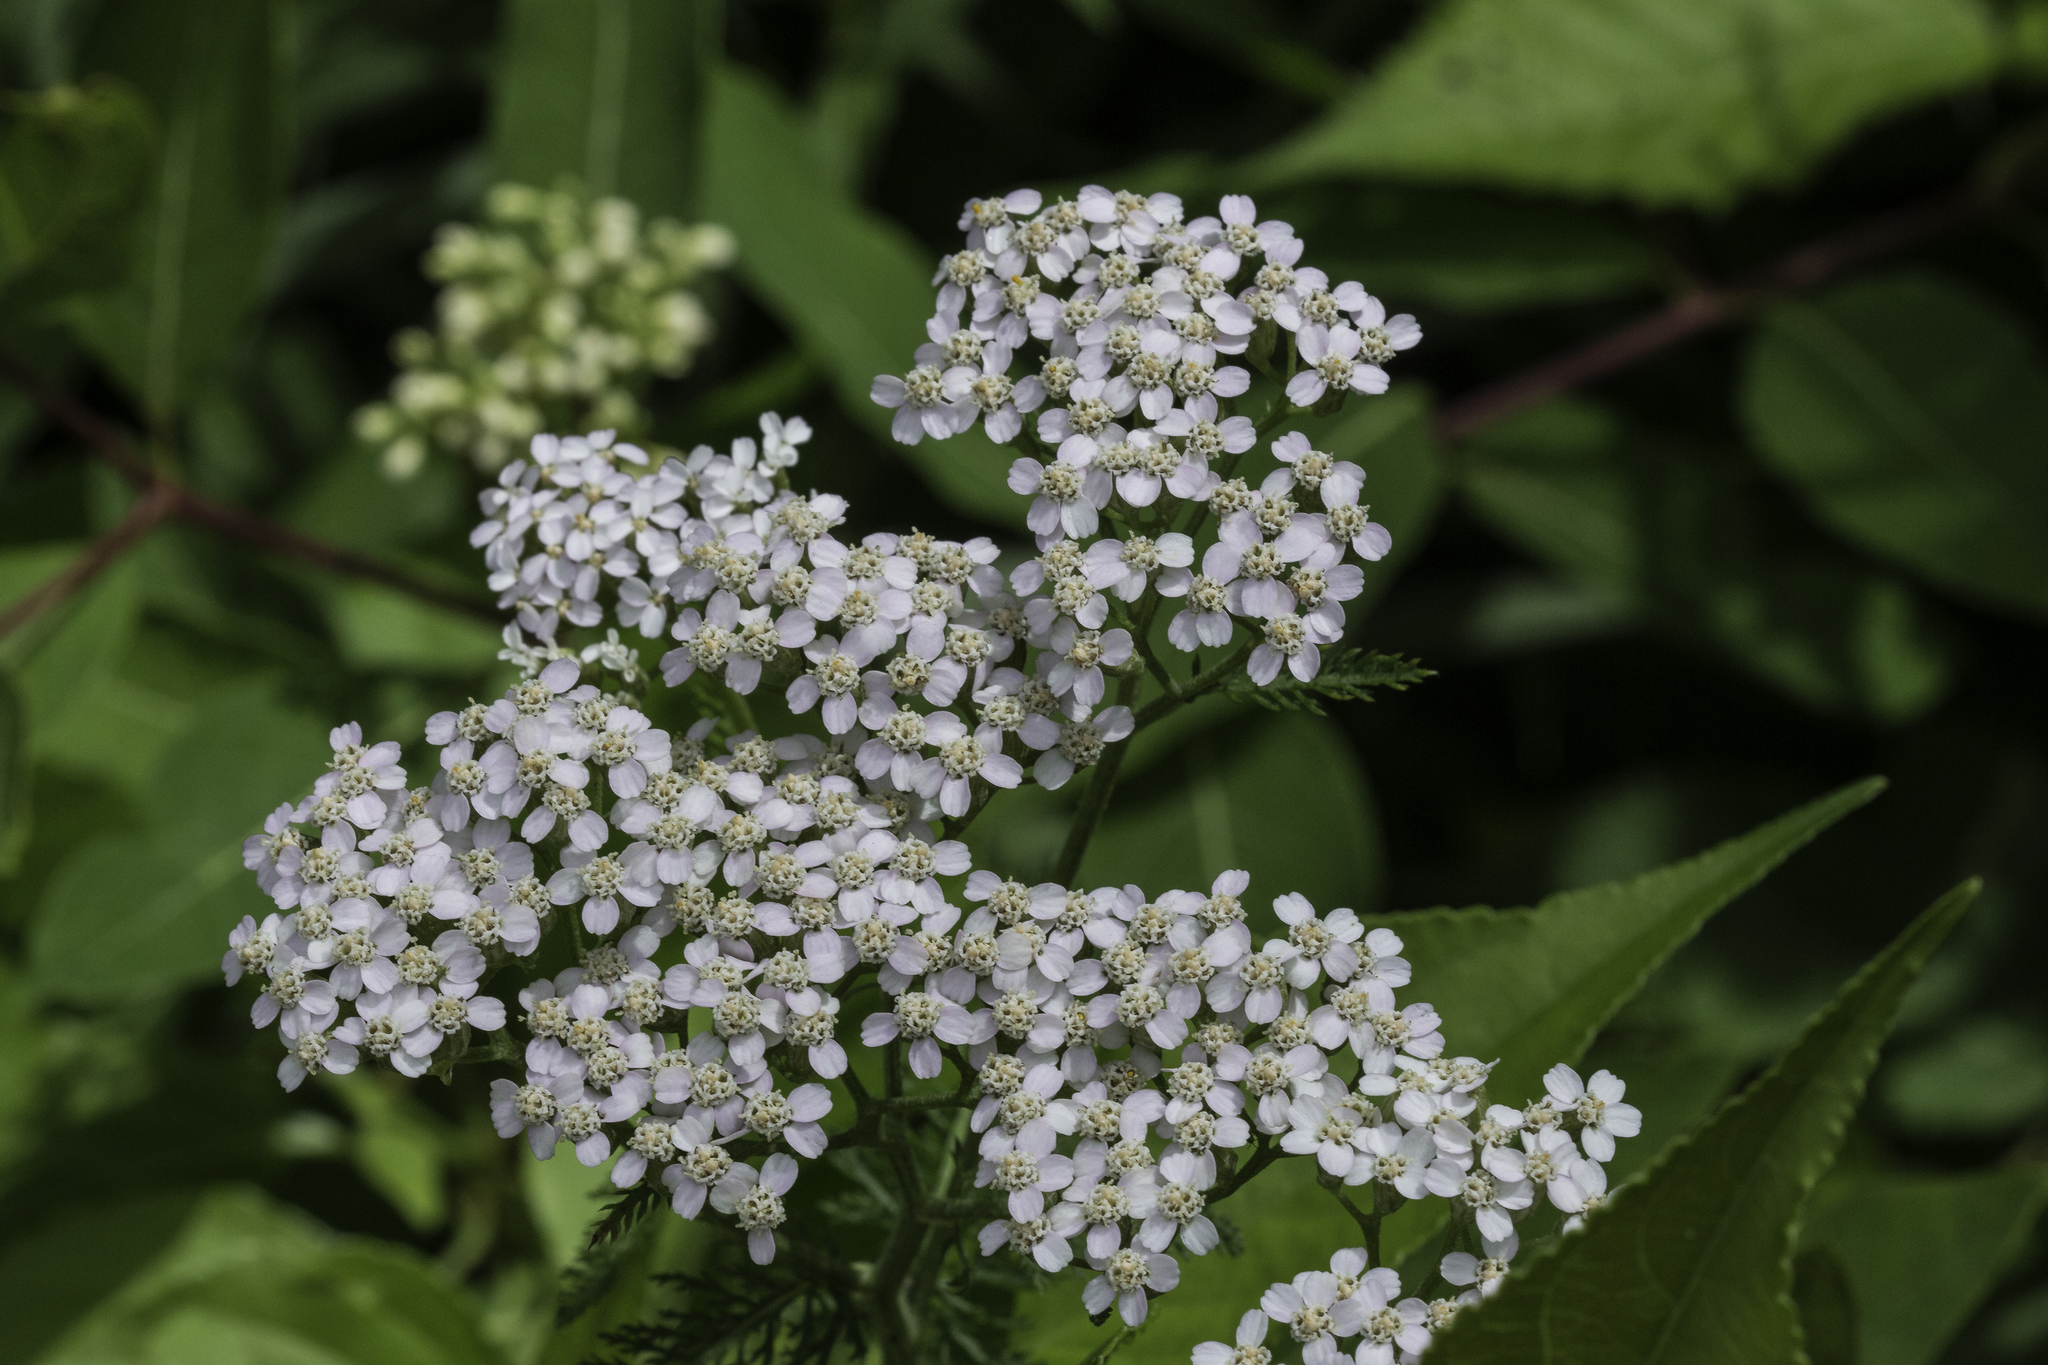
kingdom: Plantae
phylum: Tracheophyta
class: Magnoliopsida
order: Asterales
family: Asteraceae
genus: Achillea
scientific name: Achillea millefolium
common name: Yarrow
